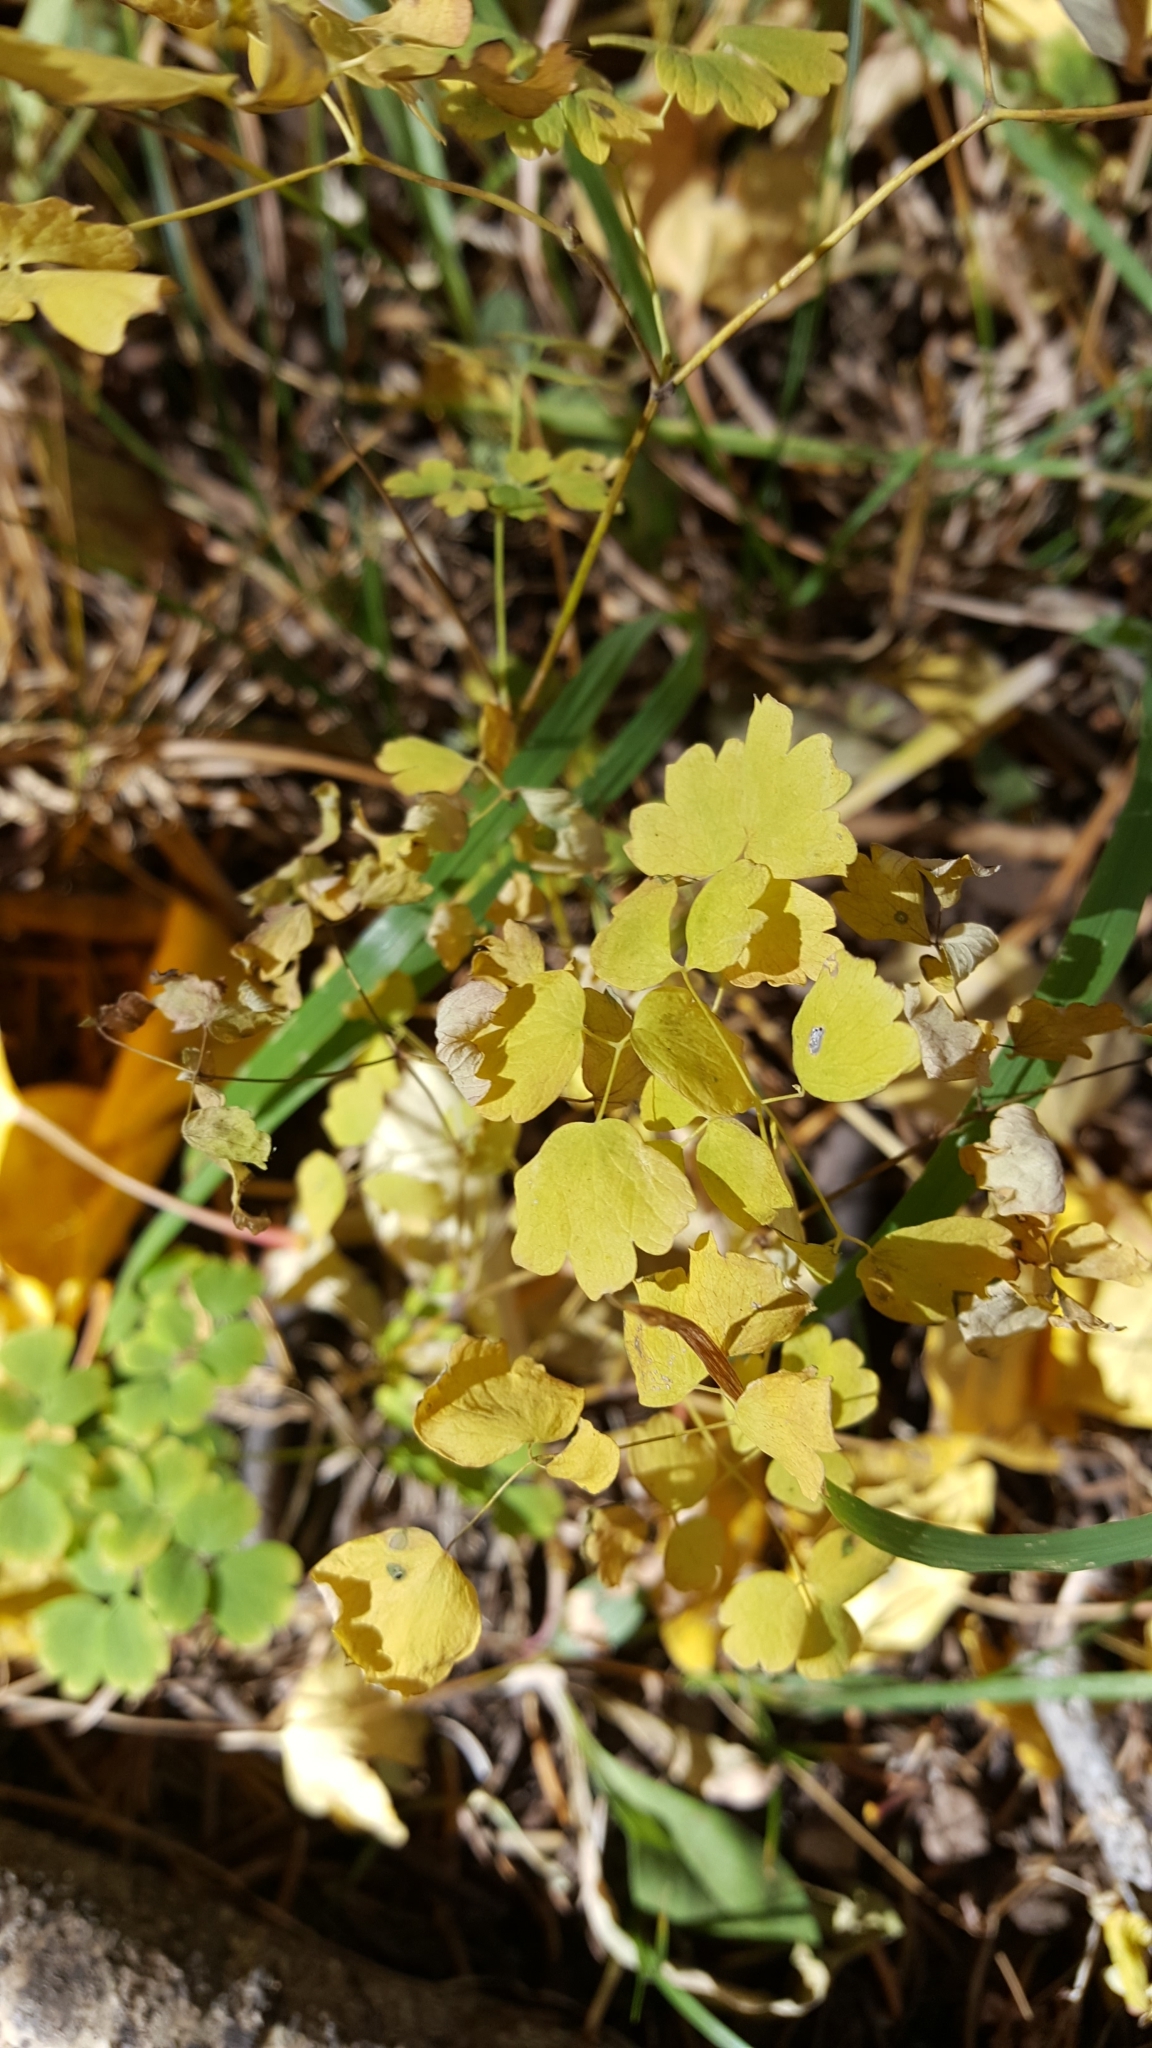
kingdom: Plantae
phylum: Tracheophyta
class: Magnoliopsida
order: Ranunculales
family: Ranunculaceae
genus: Thalictrum
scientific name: Thalictrum fendleri
